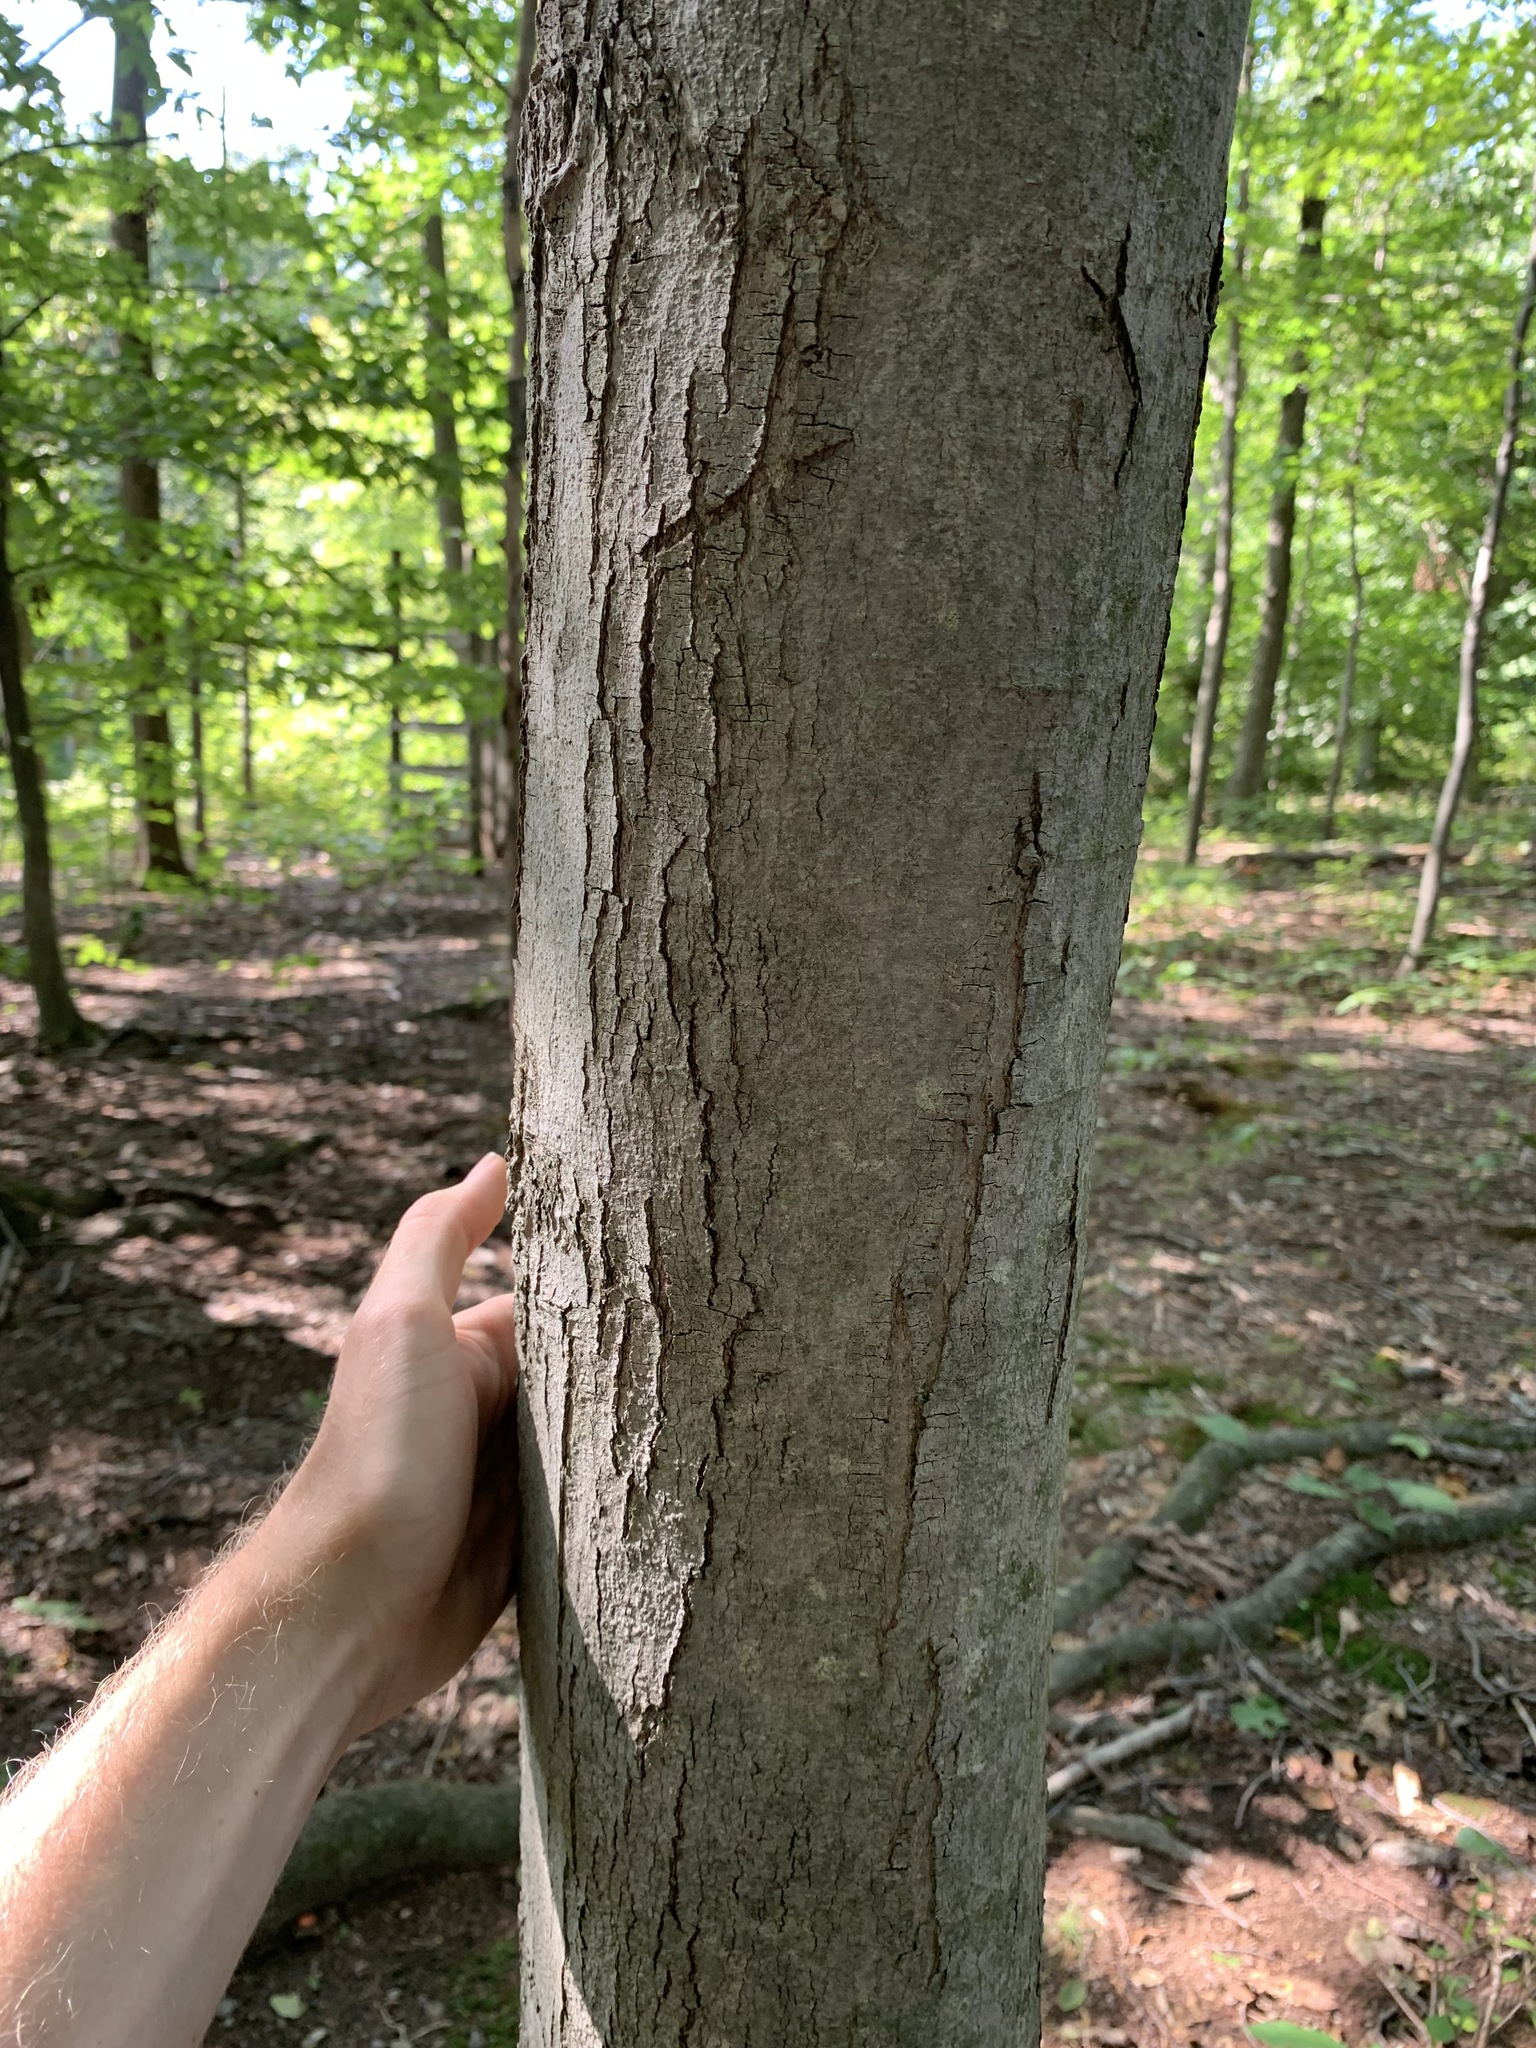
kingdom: Plantae
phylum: Tracheophyta
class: Magnoliopsida
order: Sapindales
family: Sapindaceae
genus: Acer
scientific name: Acer rubrum
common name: Red maple
